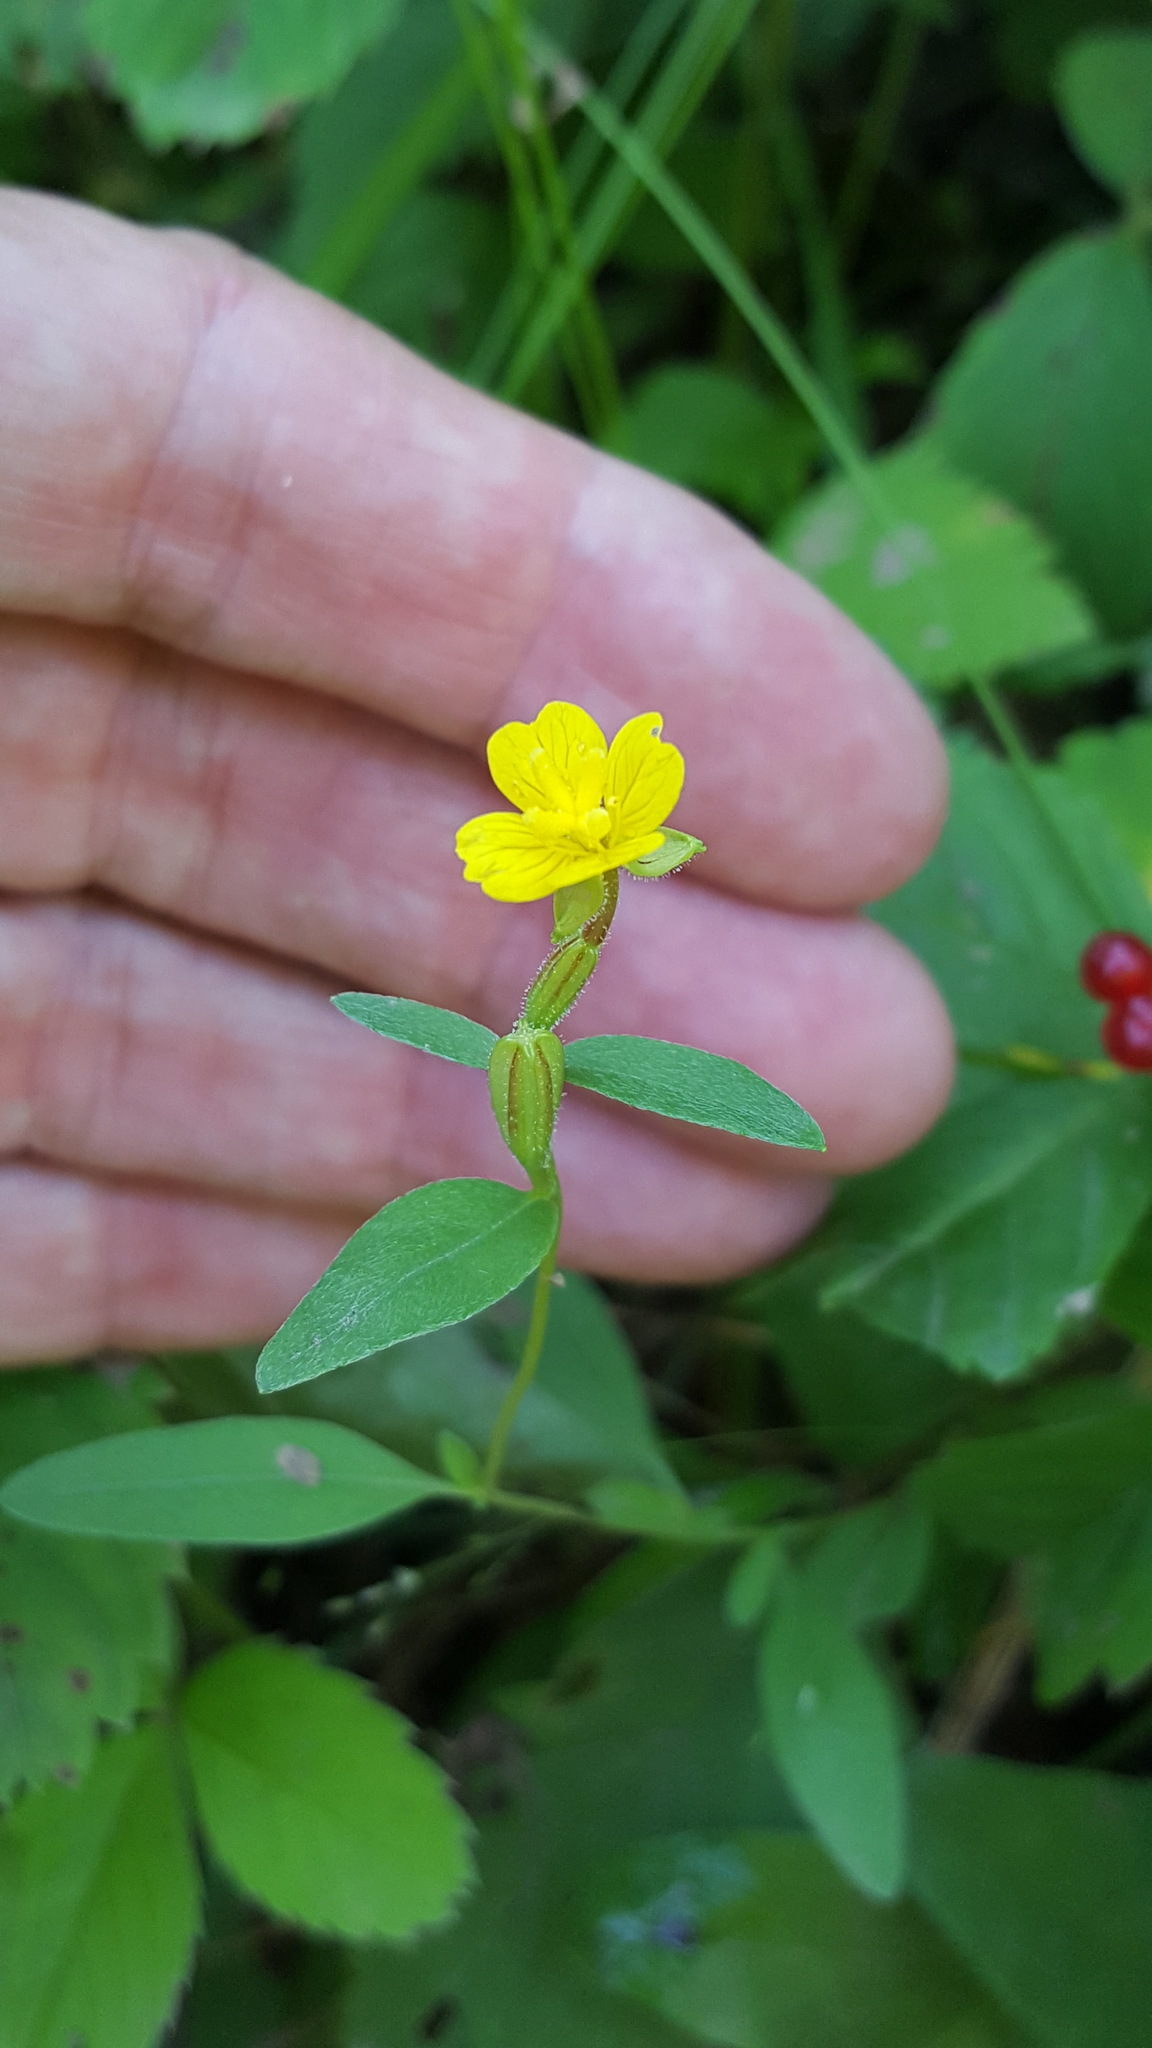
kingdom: Plantae
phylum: Tracheophyta
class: Magnoliopsida
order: Myrtales
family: Onagraceae
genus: Oenothera
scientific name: Oenothera perennis
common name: Small sundrops
